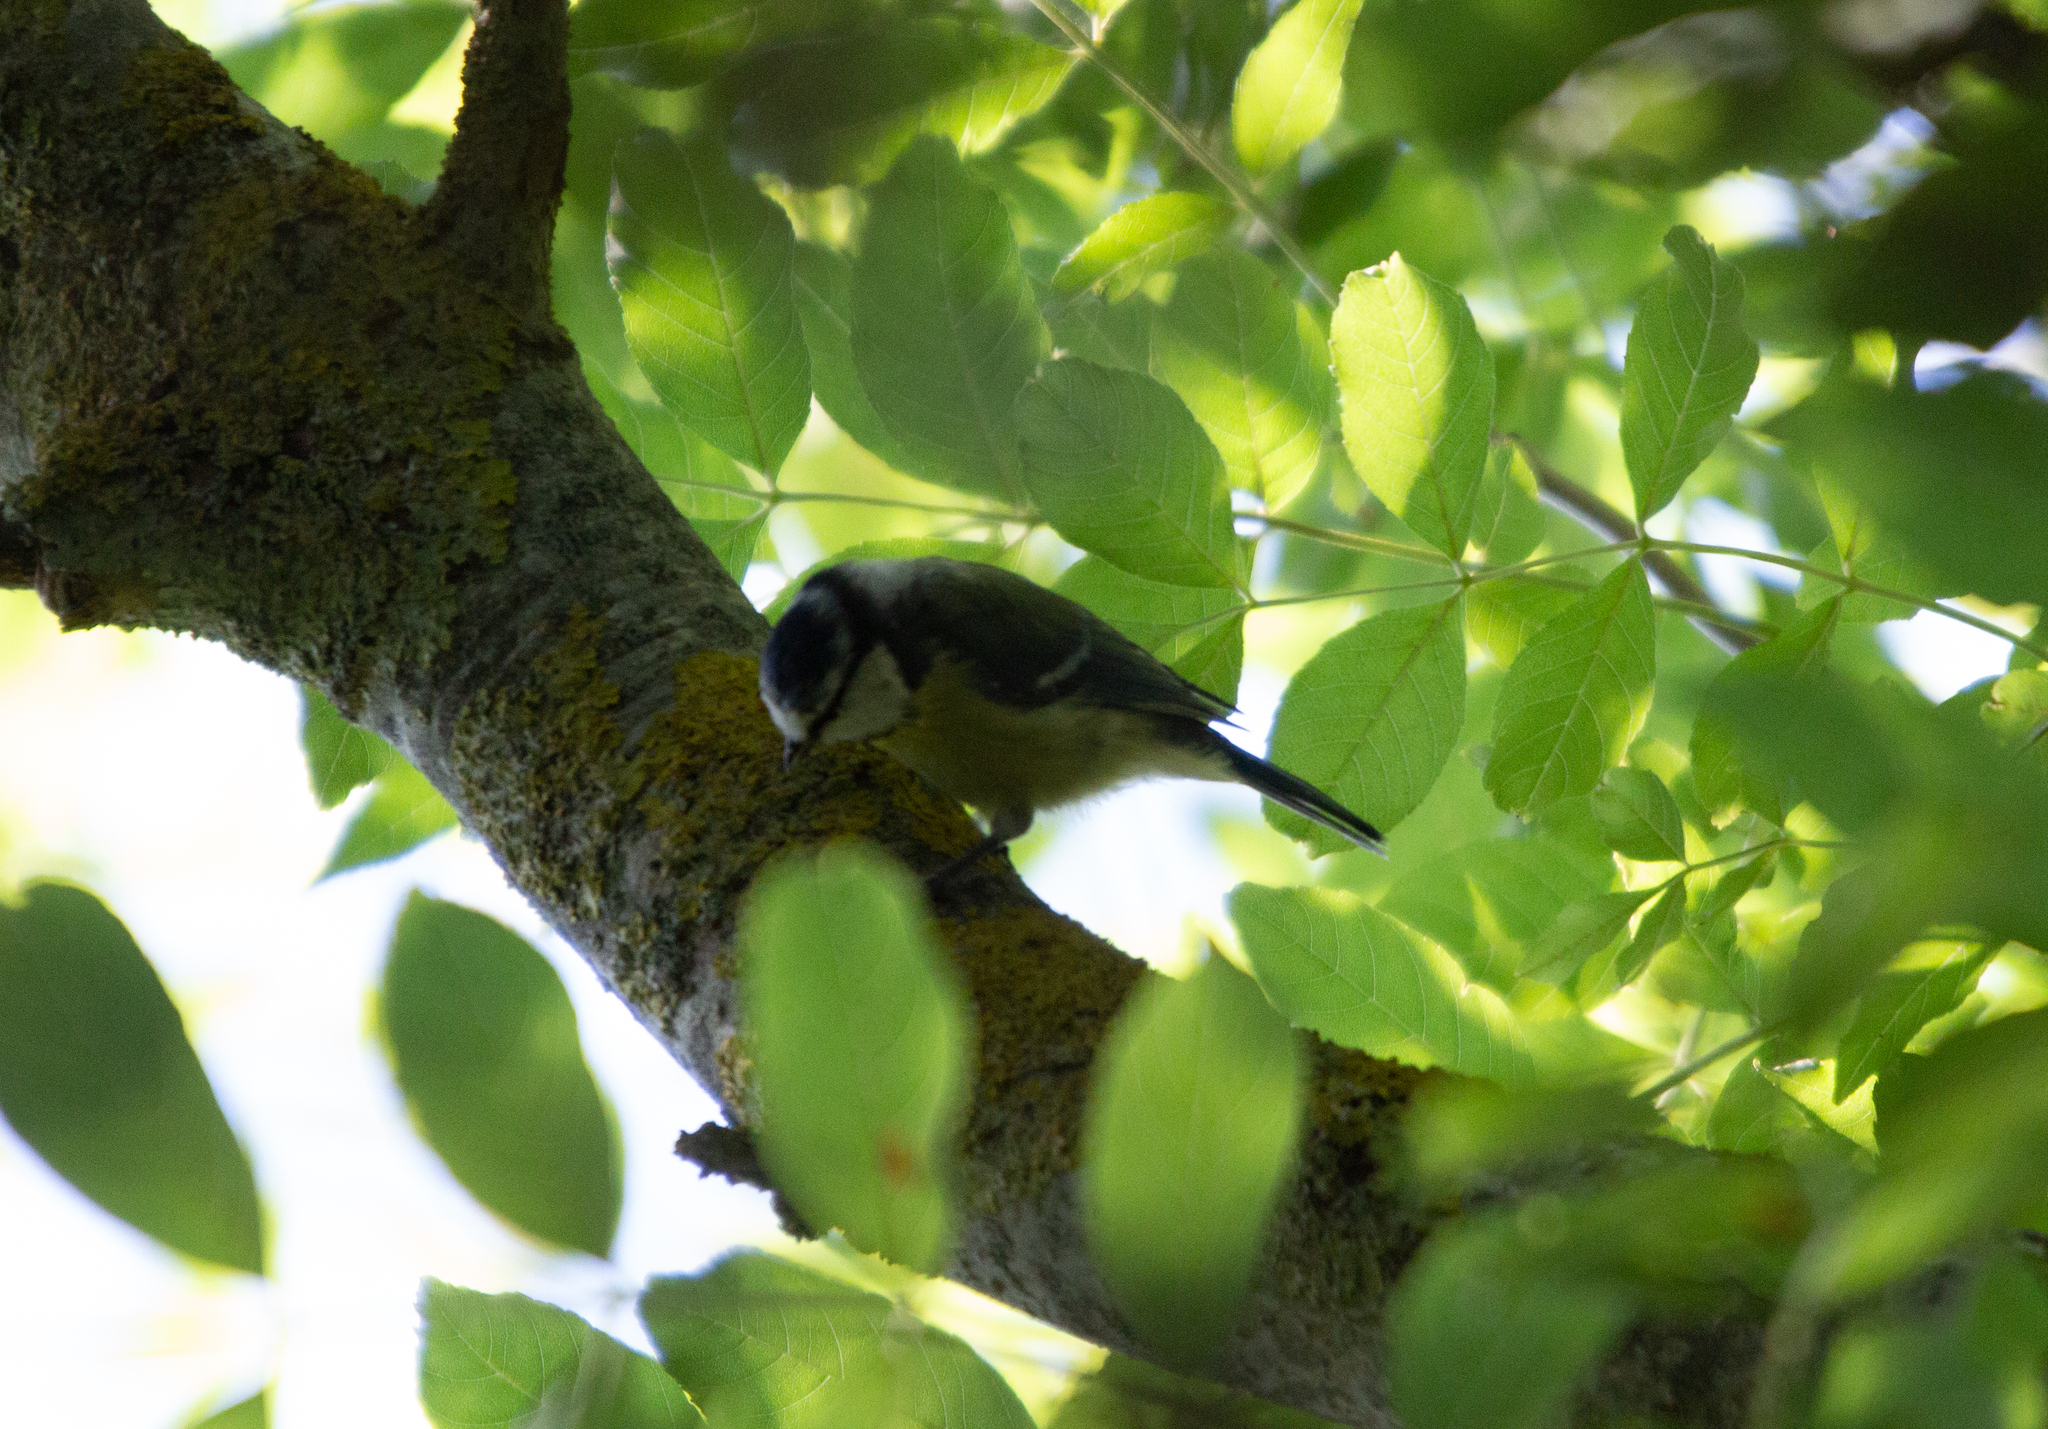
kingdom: Animalia
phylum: Chordata
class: Aves
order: Passeriformes
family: Paridae
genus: Cyanistes
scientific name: Cyanistes caeruleus
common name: Eurasian blue tit
